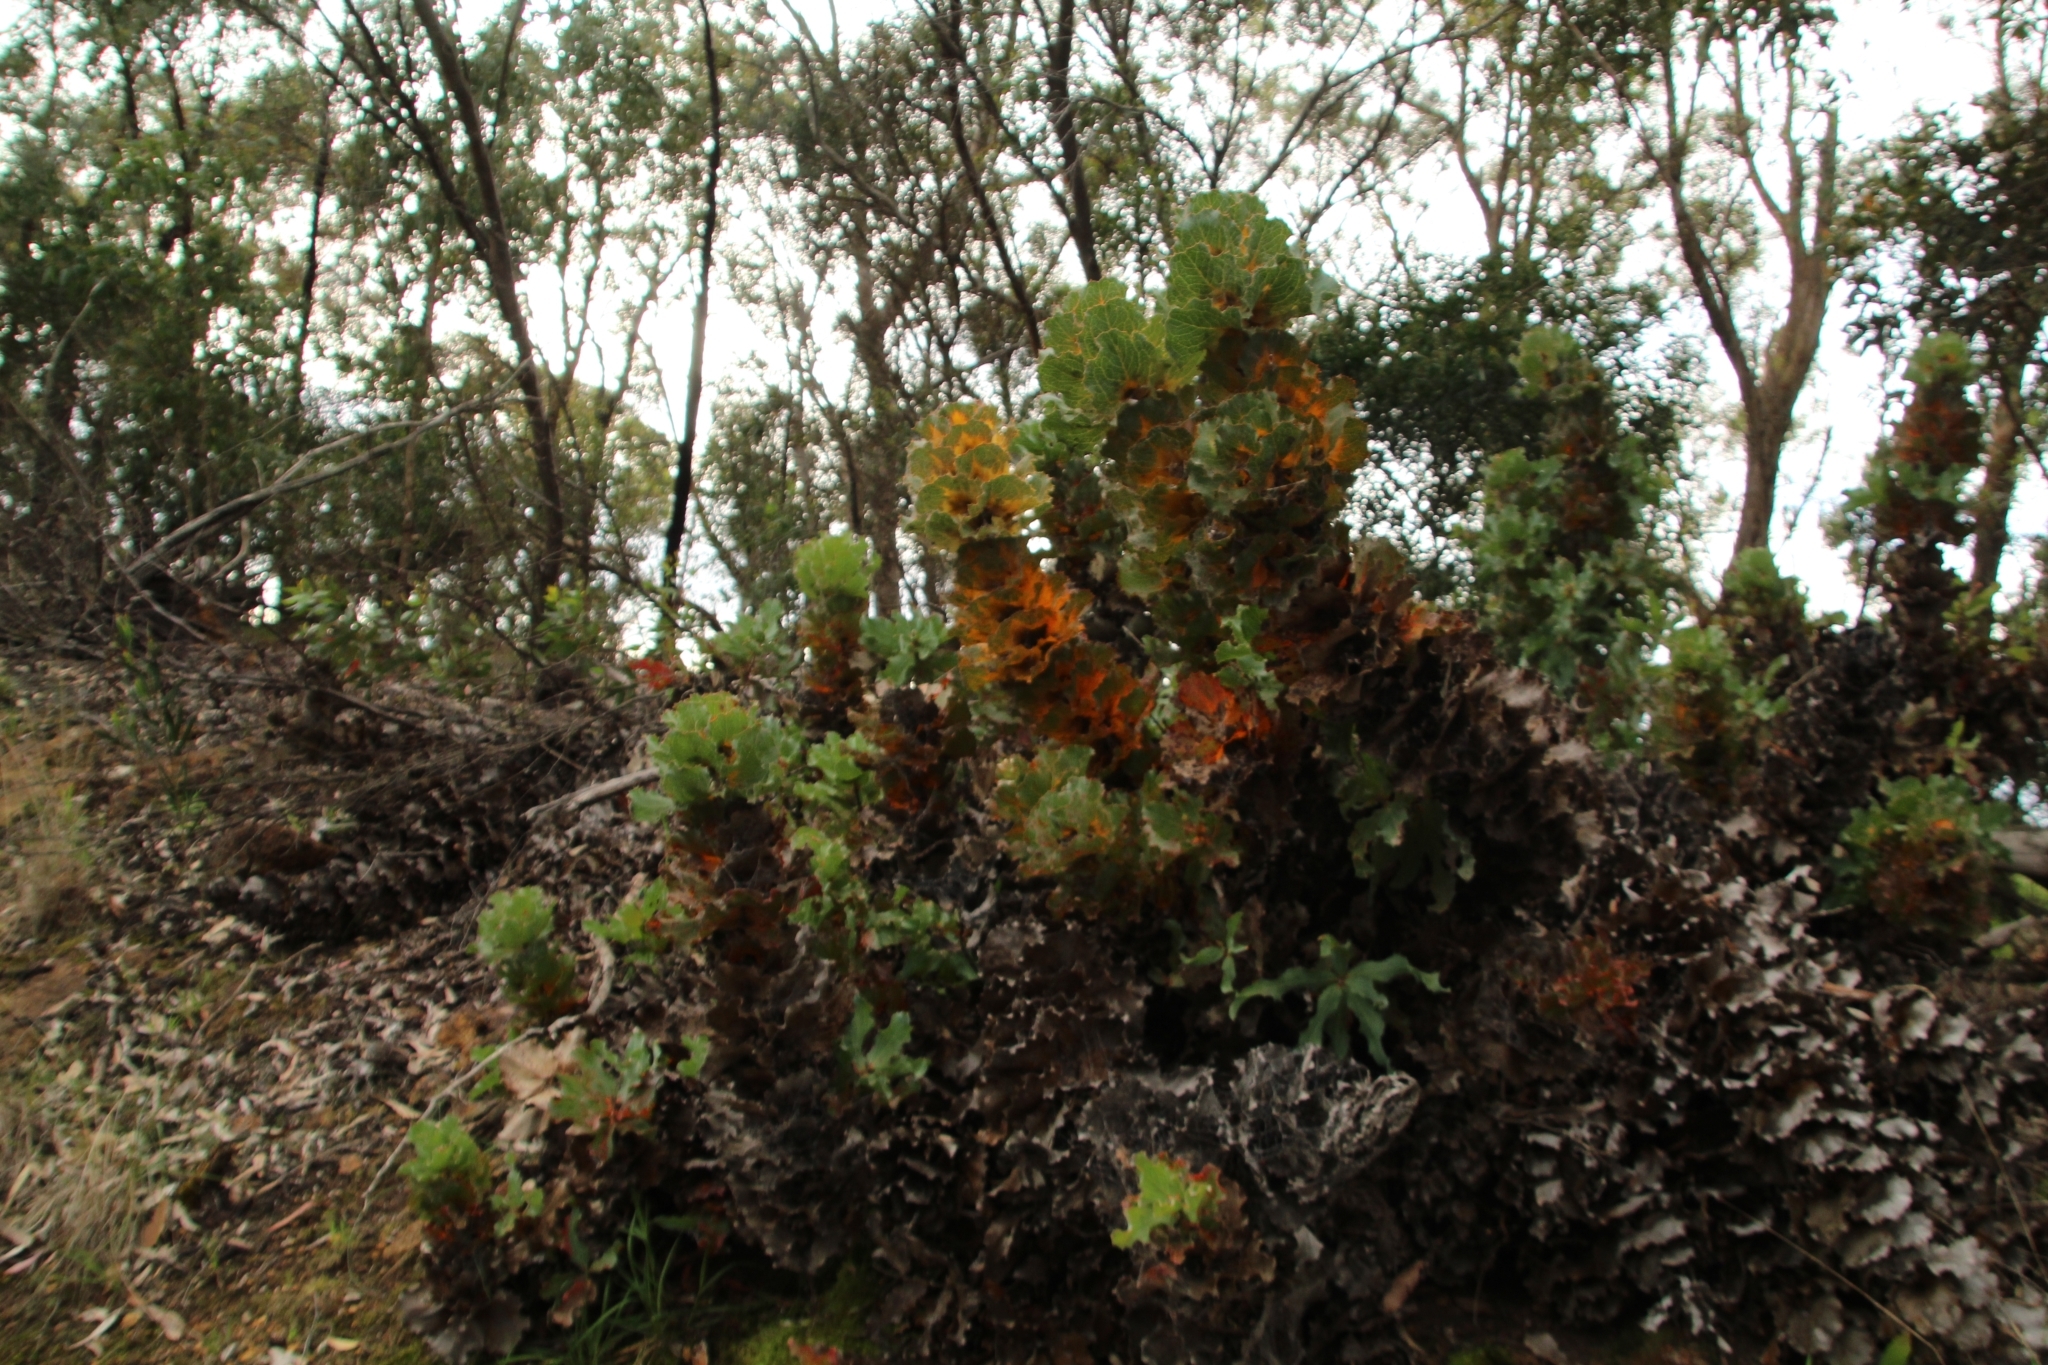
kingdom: Plantae
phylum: Tracheophyta
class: Magnoliopsida
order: Proteales
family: Proteaceae
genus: Hakea
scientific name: Hakea victoria
